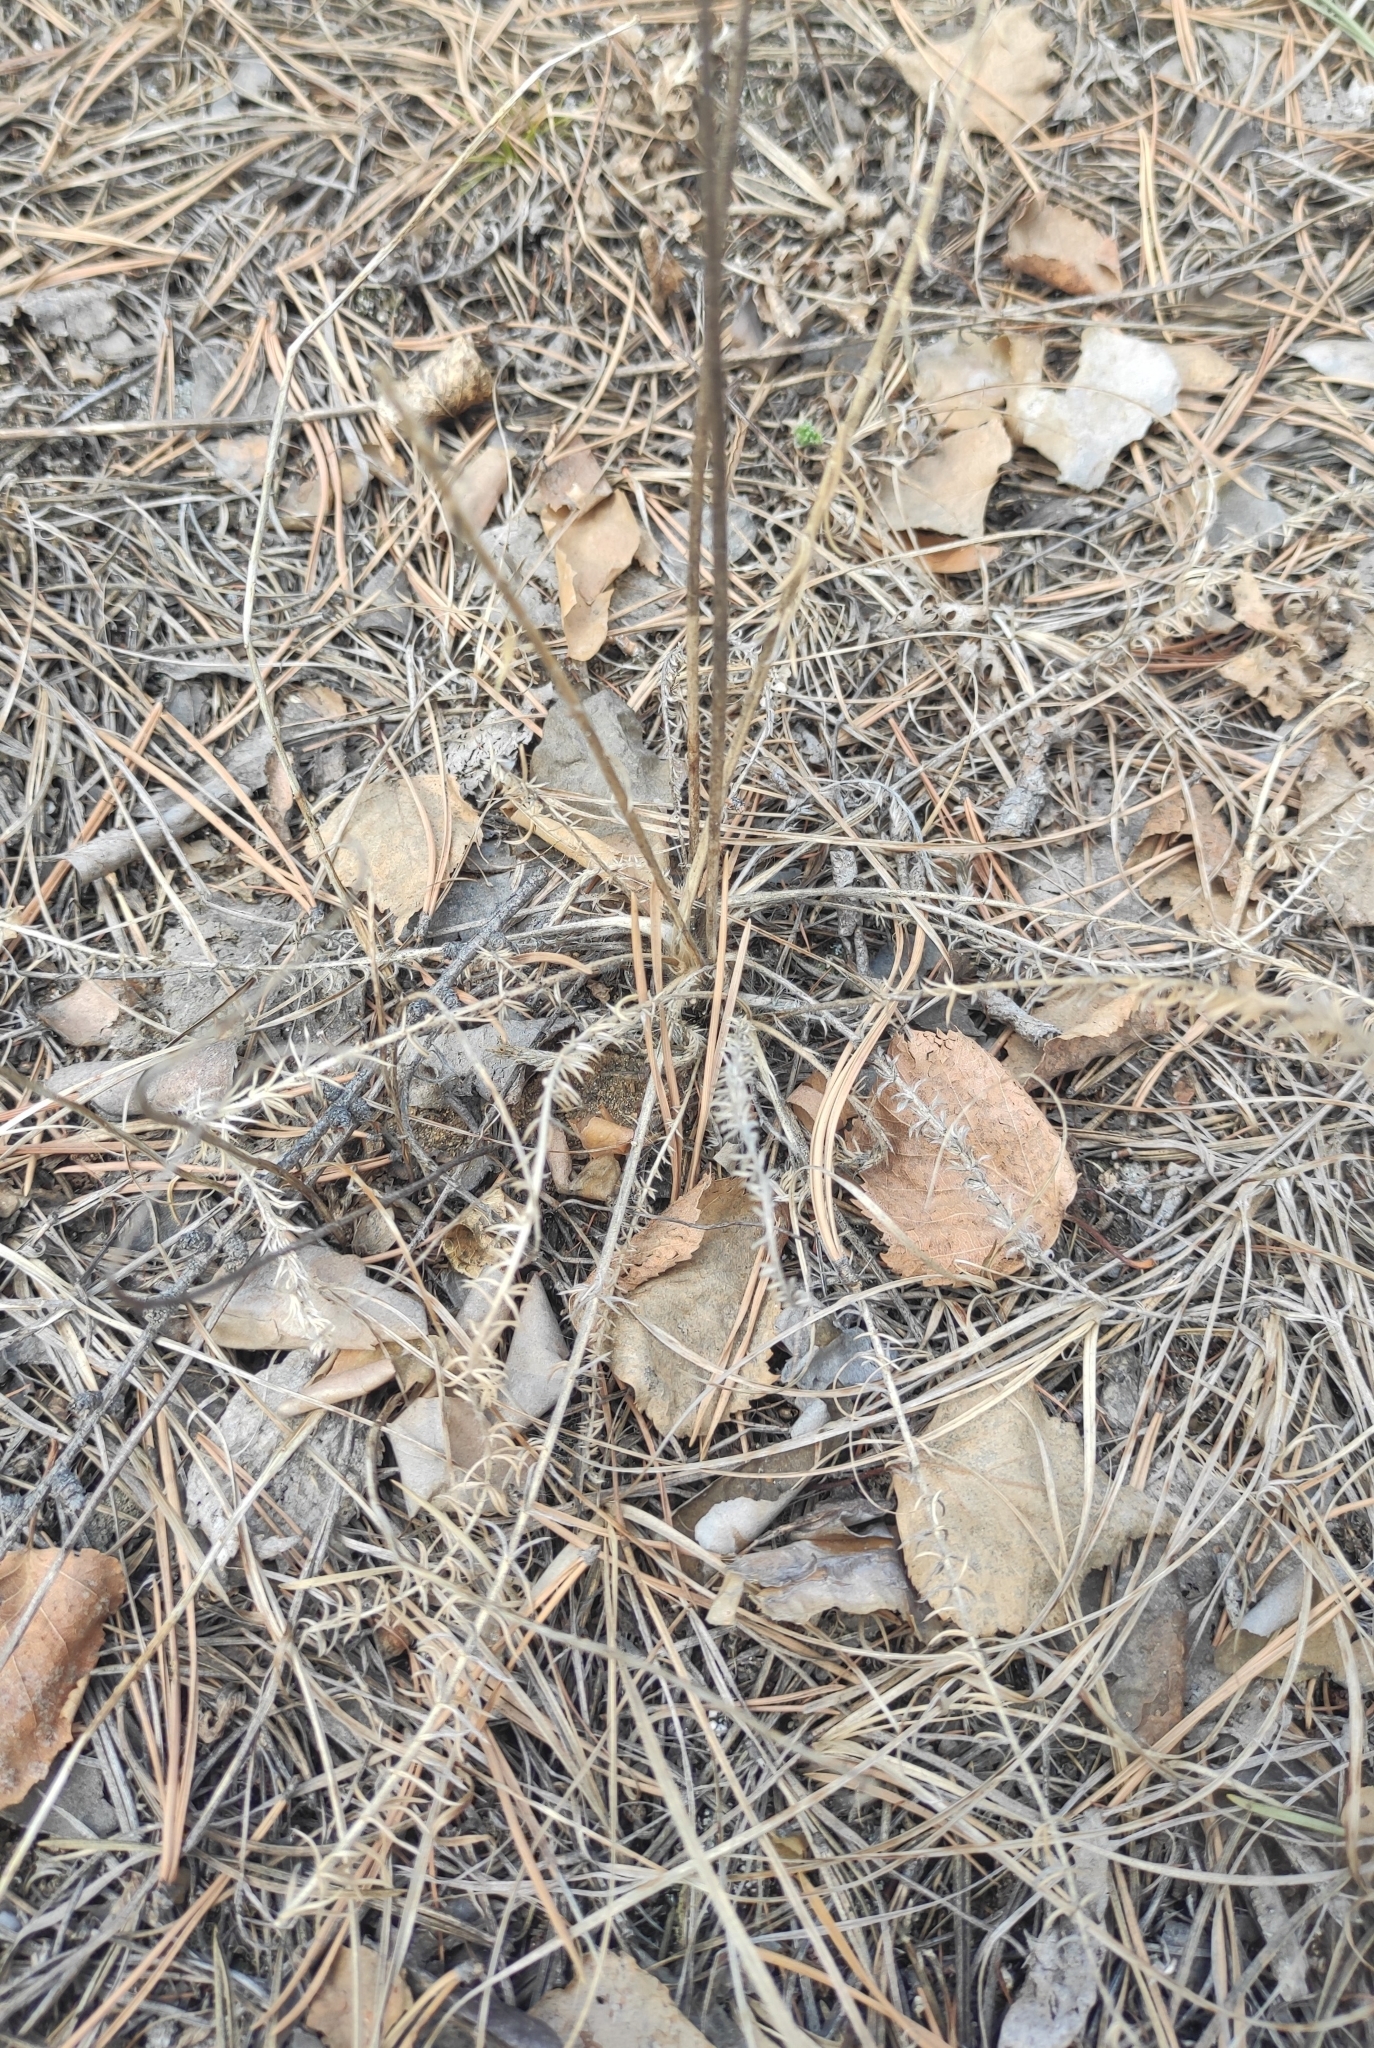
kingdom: Plantae
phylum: Tracheophyta
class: Magnoliopsida
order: Fabales
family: Fabaceae
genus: Oxytropis
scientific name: Oxytropis myriophylla
